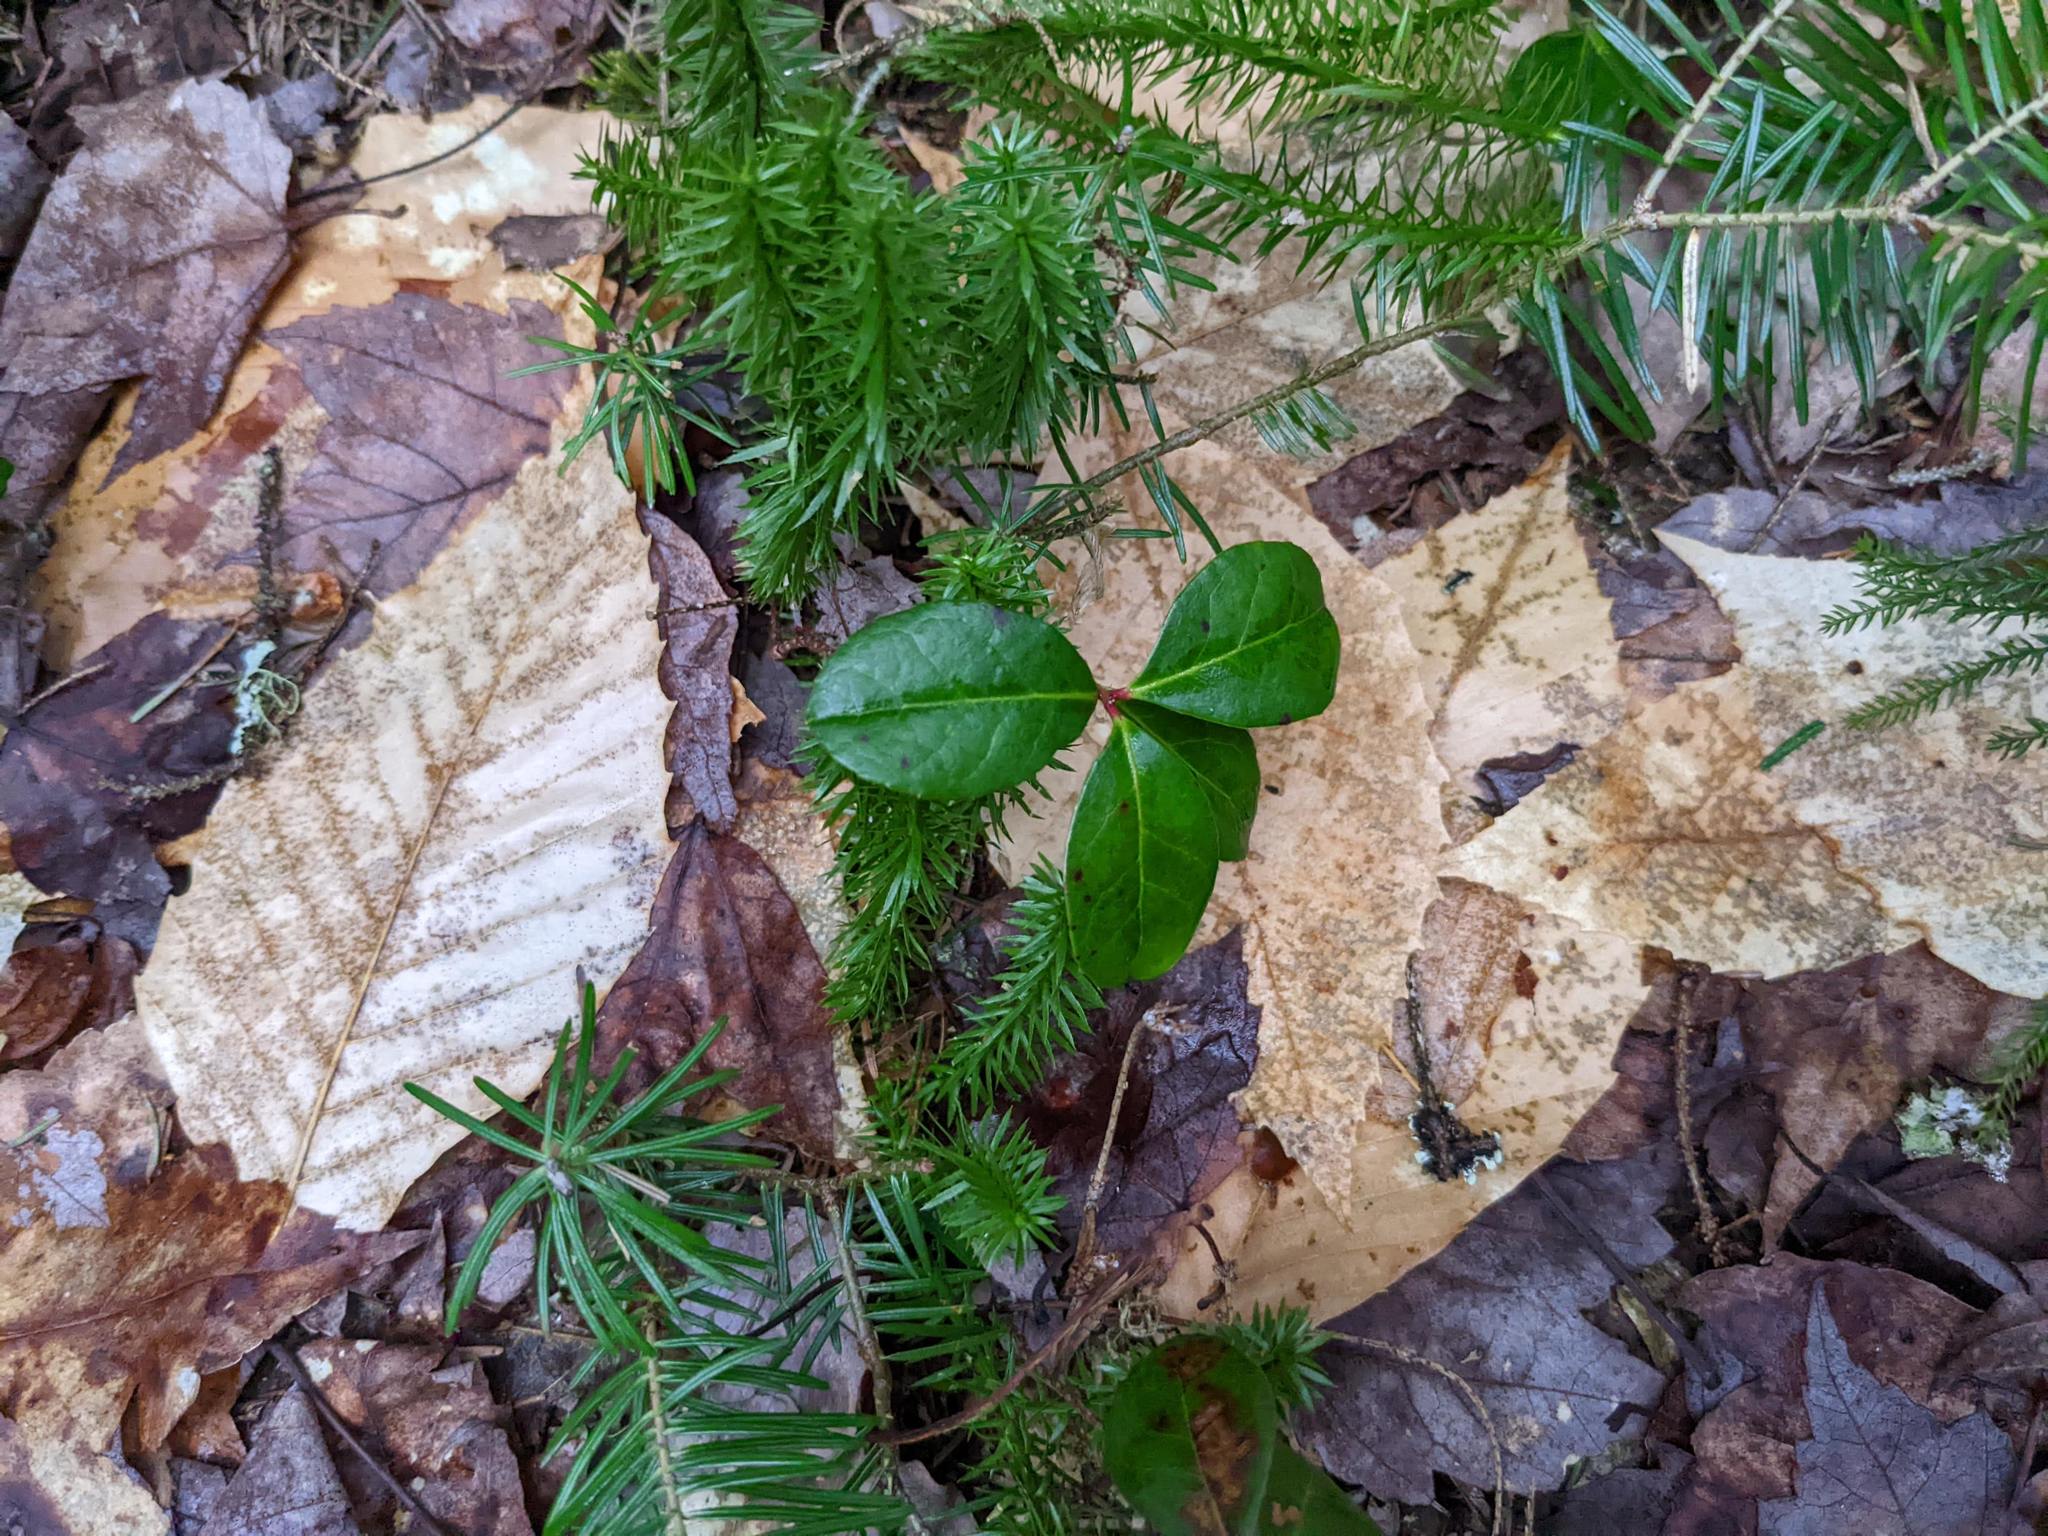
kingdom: Plantae
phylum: Tracheophyta
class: Magnoliopsida
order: Fagales
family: Fagaceae
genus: Fagus
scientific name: Fagus grandifolia
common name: American beech
